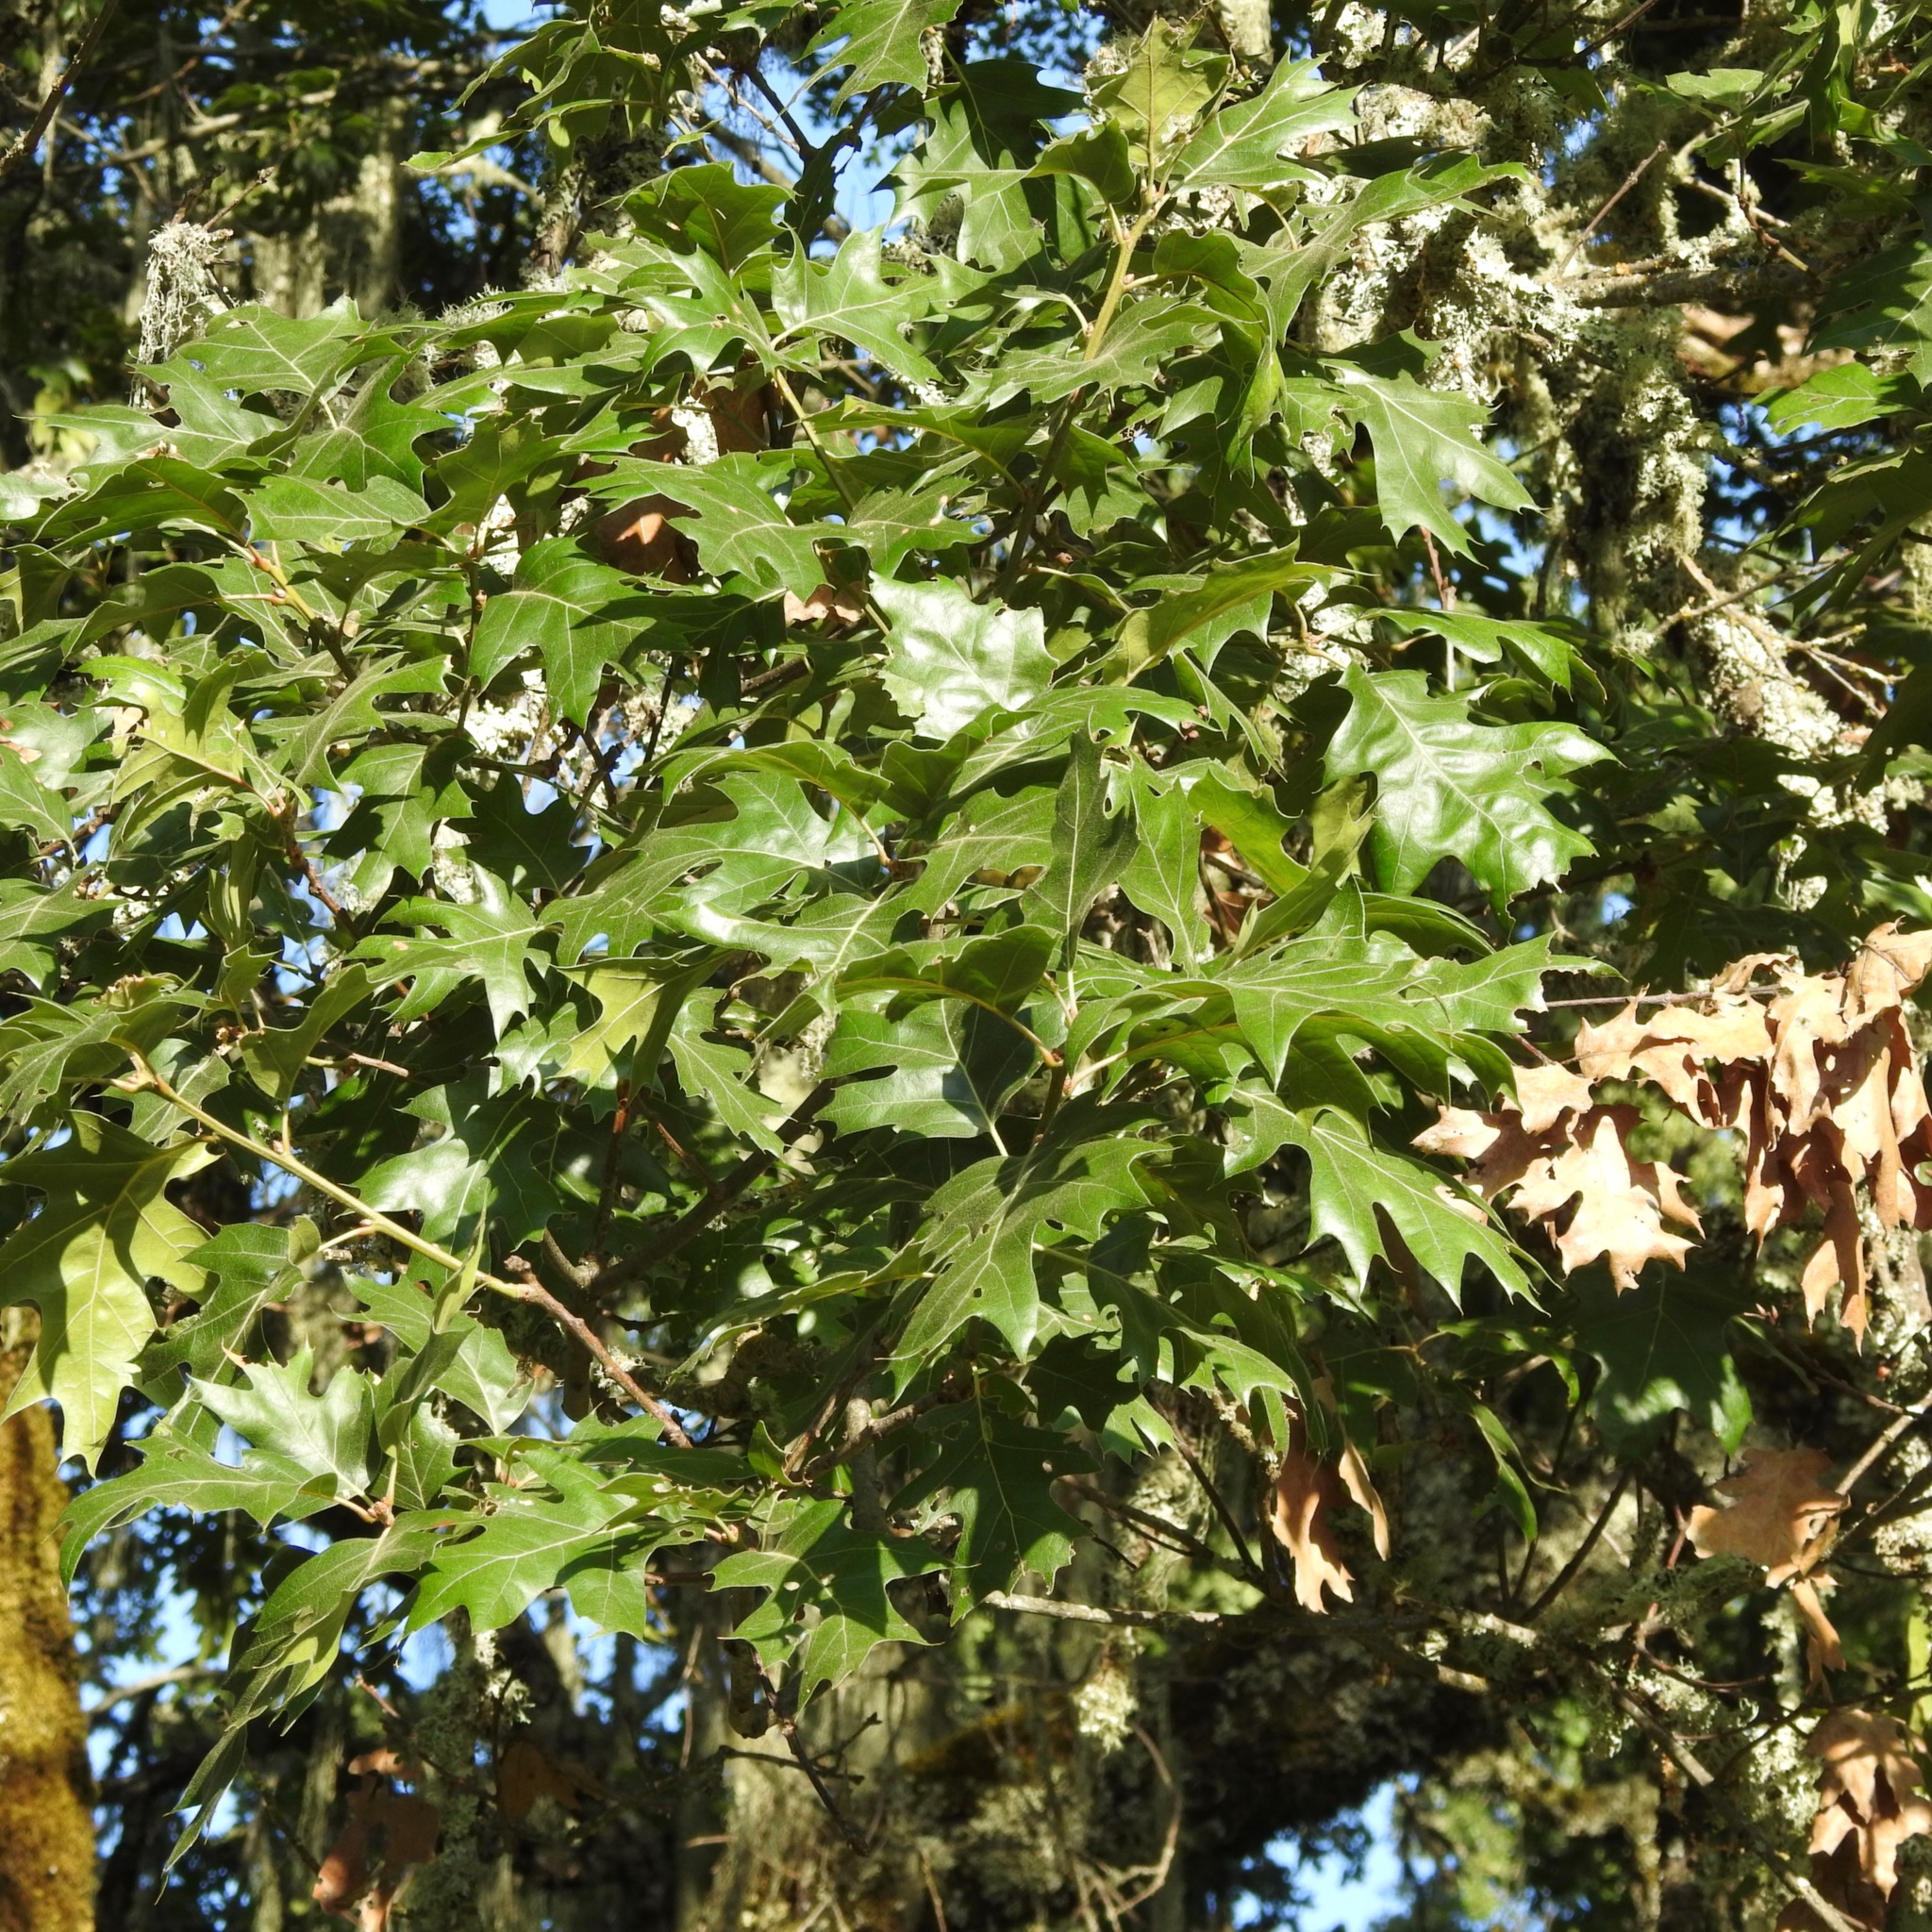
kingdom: Plantae
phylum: Tracheophyta
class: Magnoliopsida
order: Fagales
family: Fagaceae
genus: Quercus
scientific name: Quercus kelloggii
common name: California black oak
